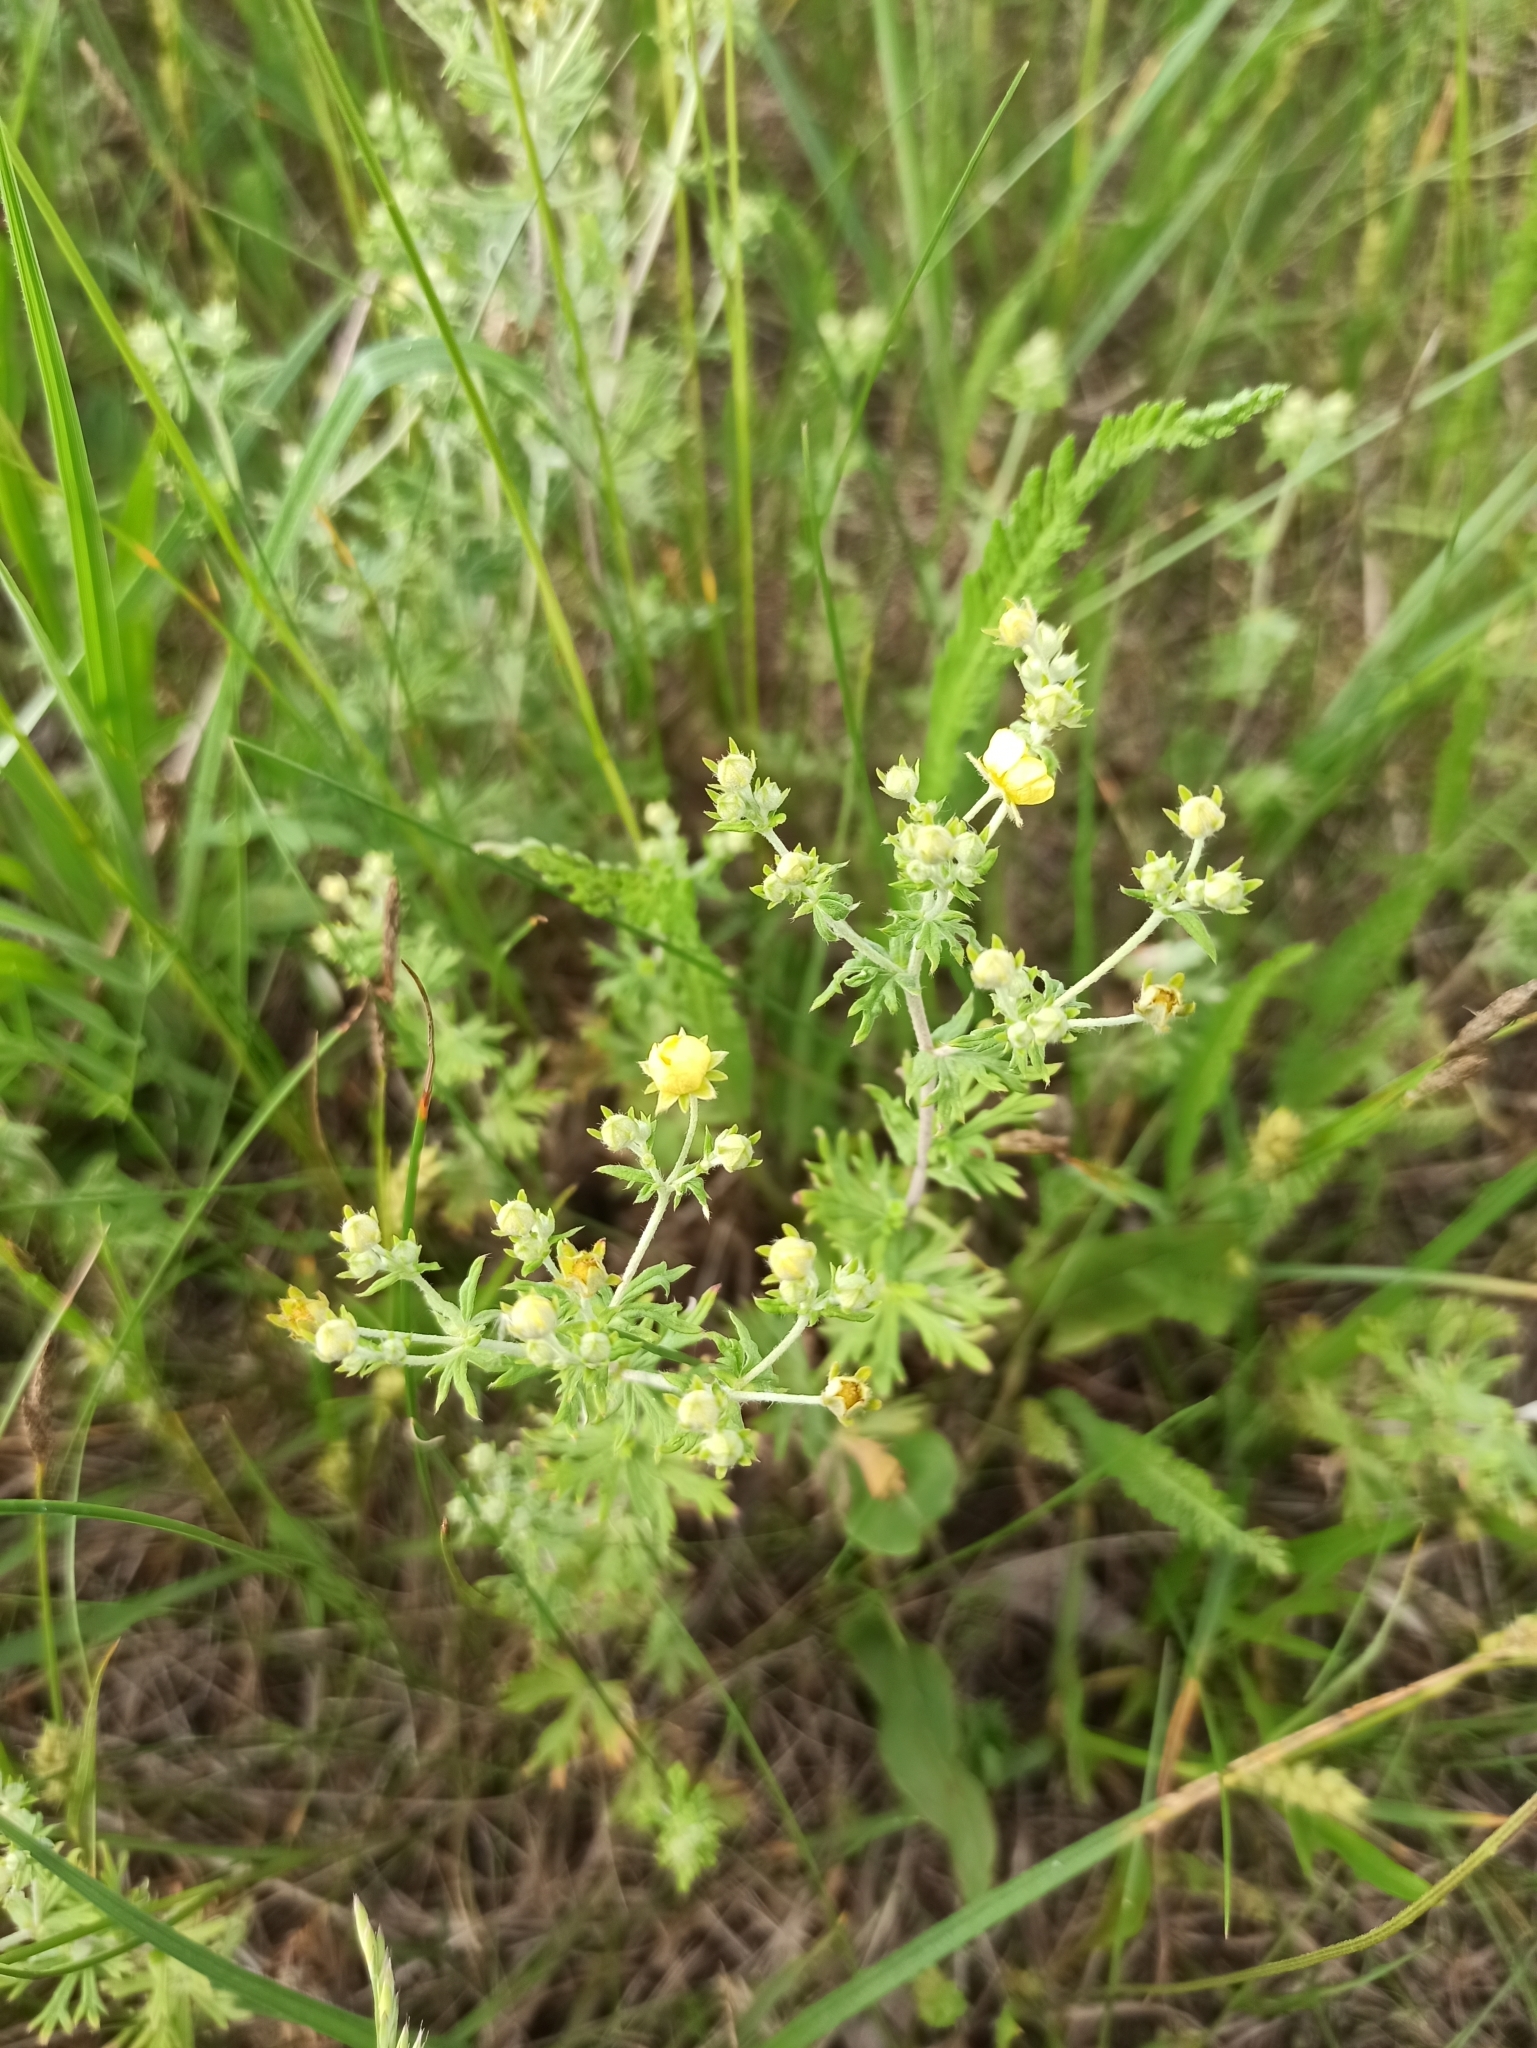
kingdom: Plantae
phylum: Tracheophyta
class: Magnoliopsida
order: Rosales
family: Rosaceae
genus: Potentilla
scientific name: Potentilla argentea
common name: Hoary cinquefoil
